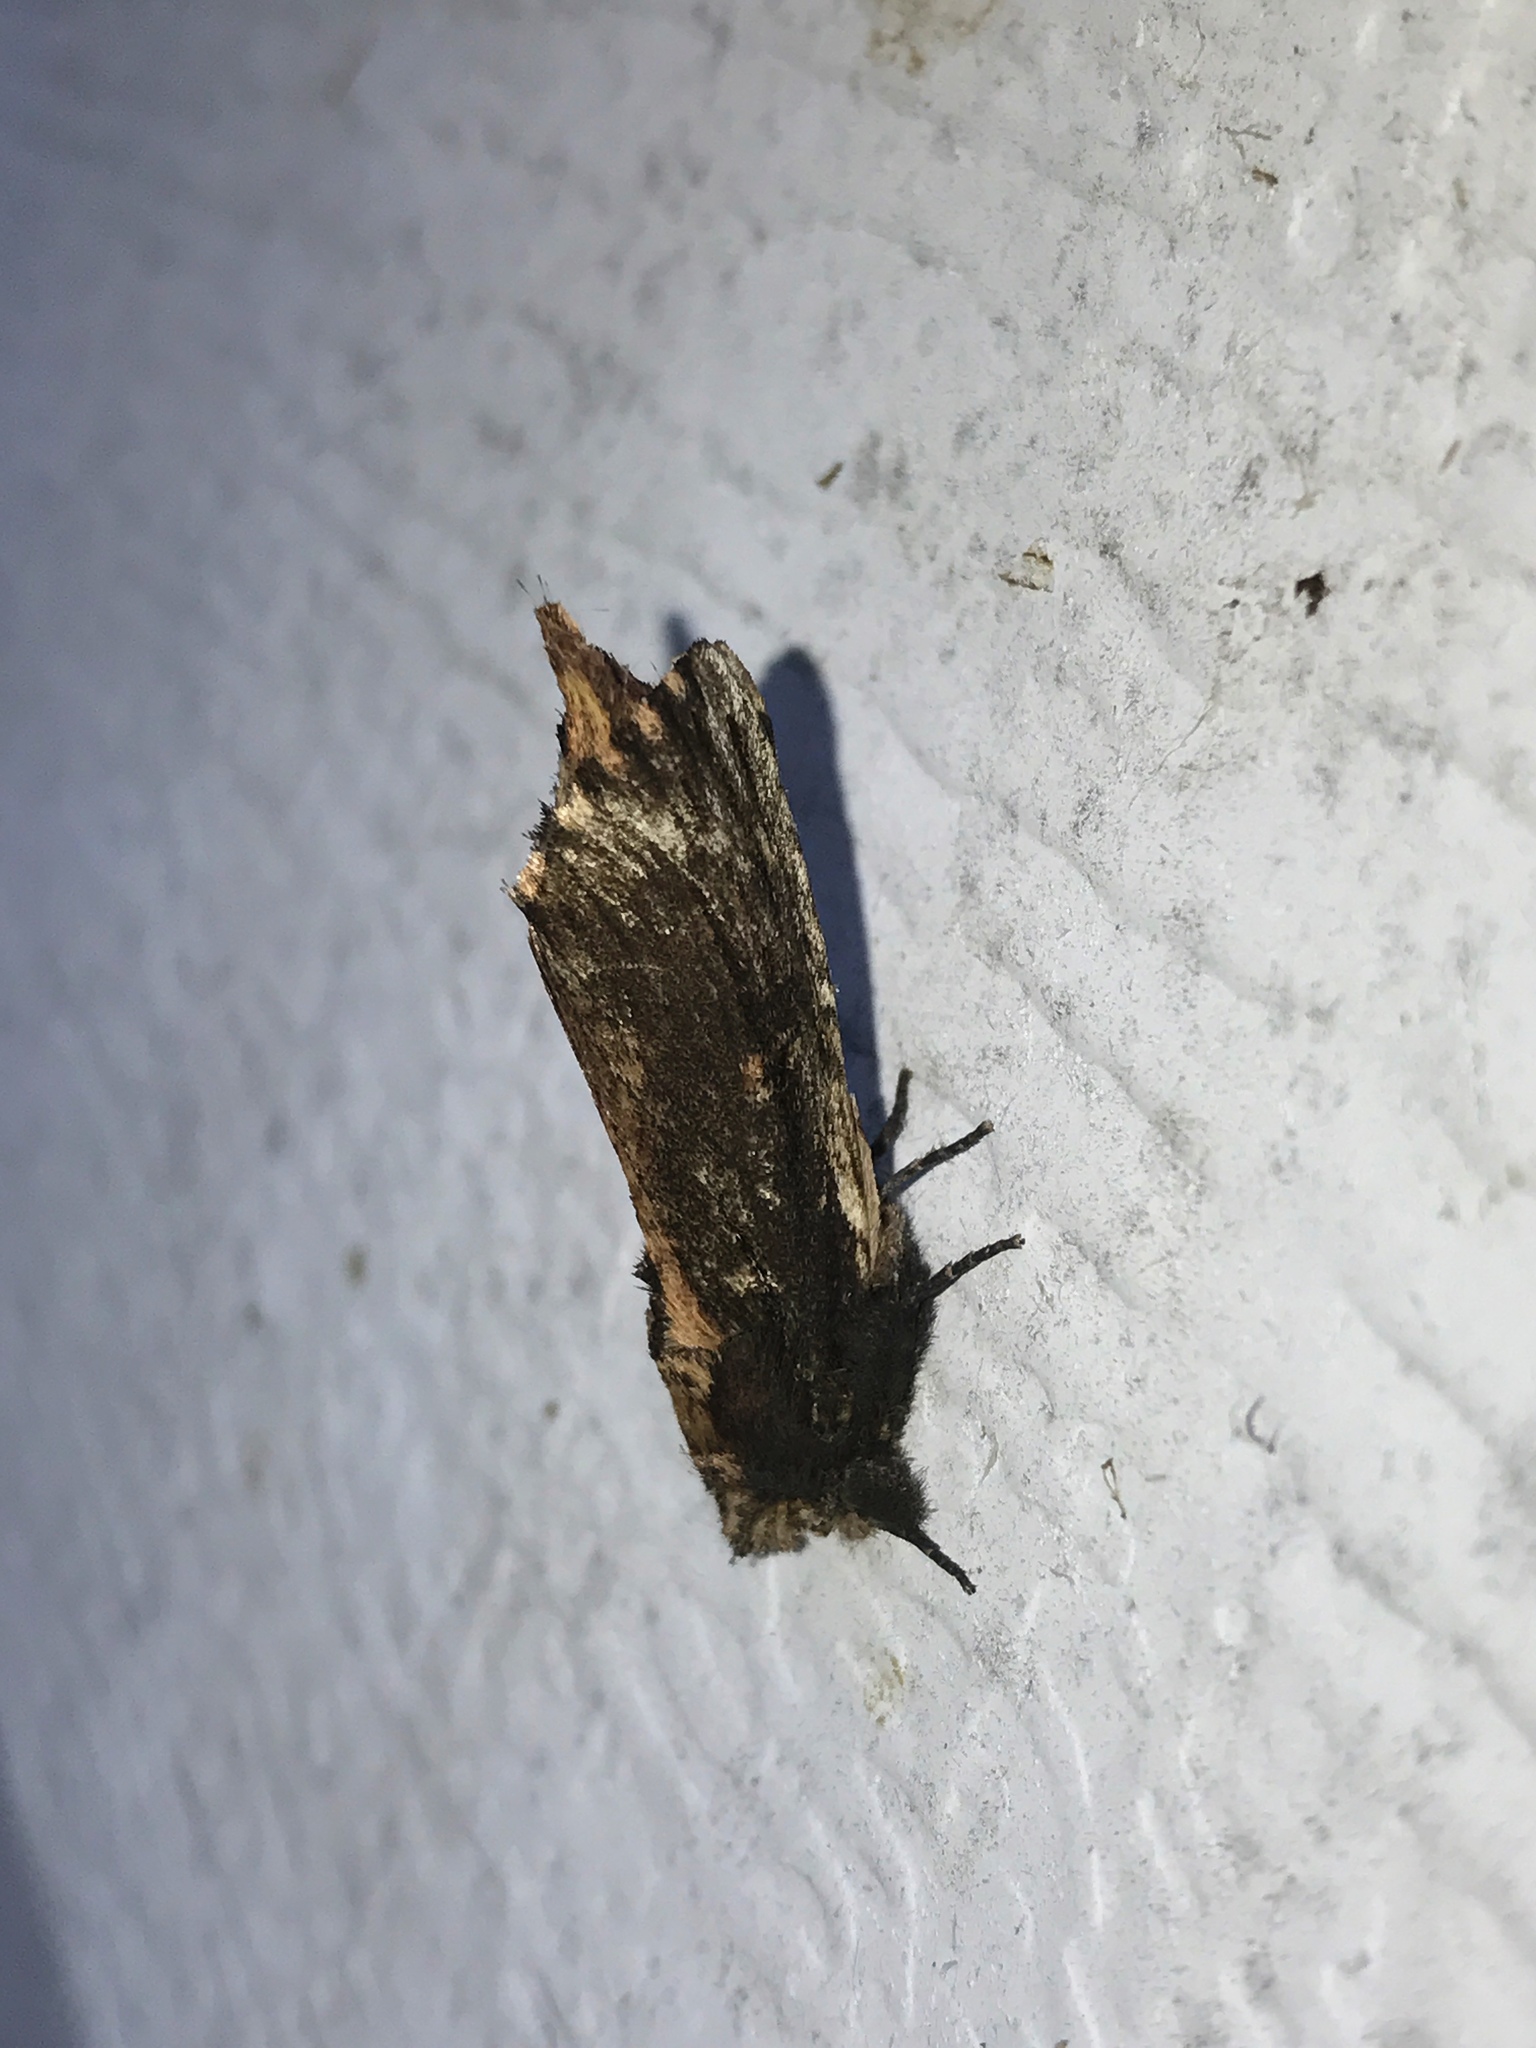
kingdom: Animalia
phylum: Arthropoda
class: Insecta
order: Lepidoptera
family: Notodontidae
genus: Schizura
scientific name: Schizura ipomaeae
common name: Morning-glory prominent
